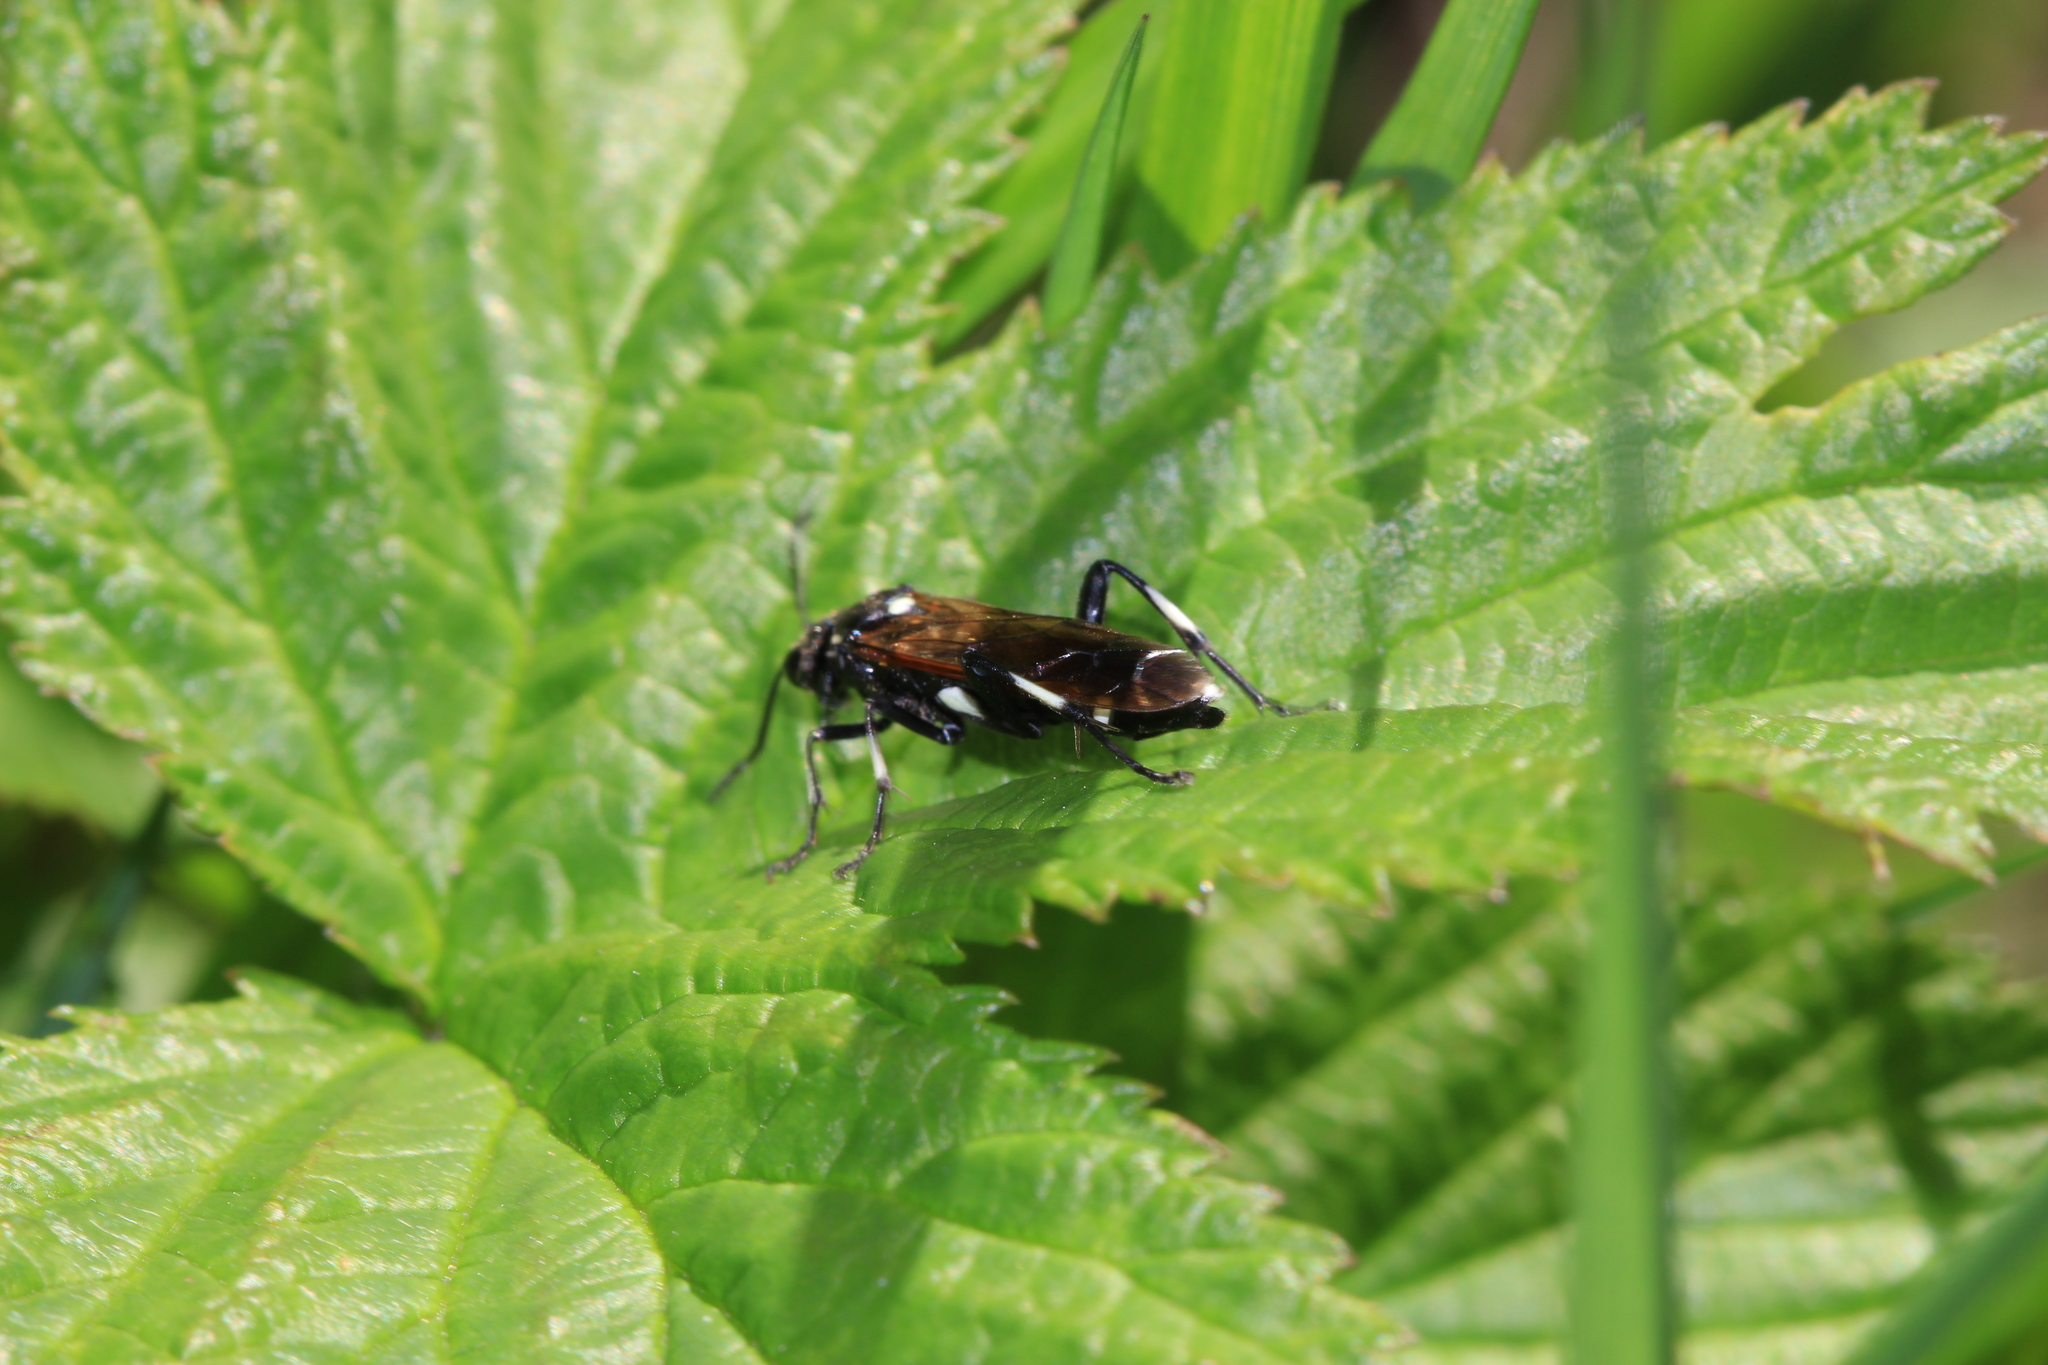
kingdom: Animalia
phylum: Arthropoda
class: Insecta
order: Hymenoptera
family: Tenthredinidae
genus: Macrophya
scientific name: Macrophya duodecimpunctata
